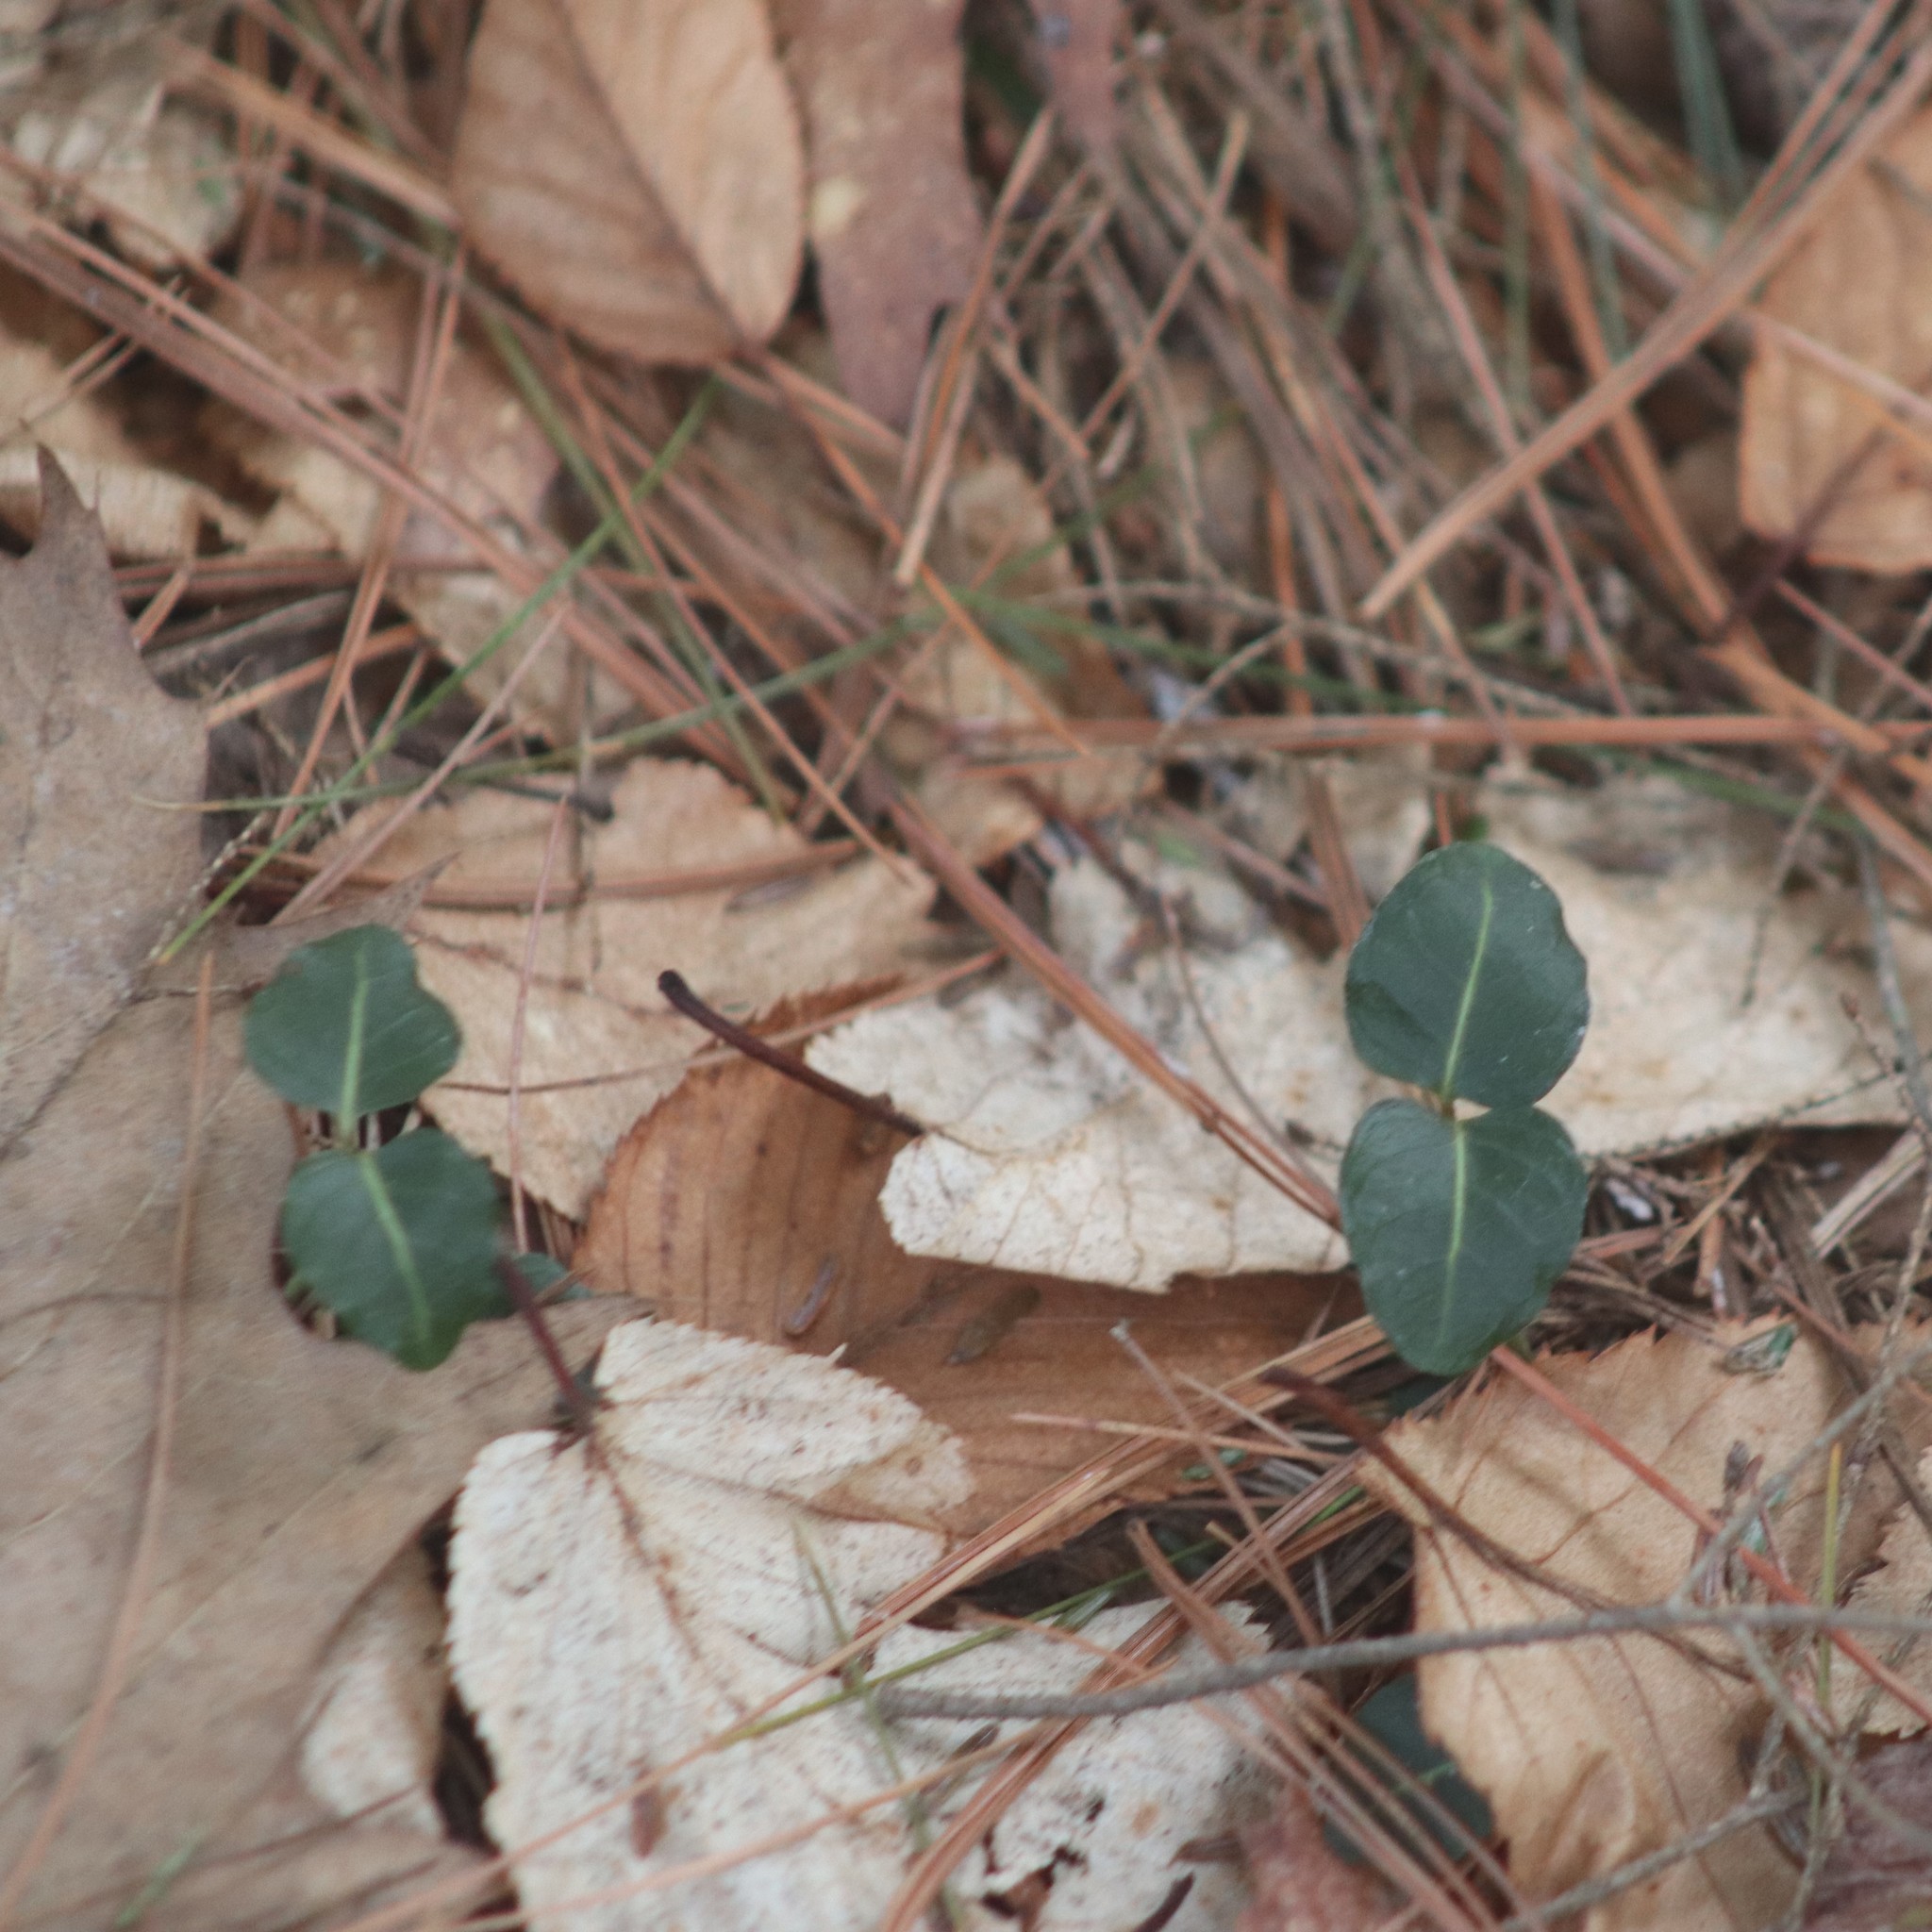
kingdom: Plantae
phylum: Tracheophyta
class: Magnoliopsida
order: Gentianales
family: Rubiaceae
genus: Mitchella
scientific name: Mitchella repens
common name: Partridge-berry
